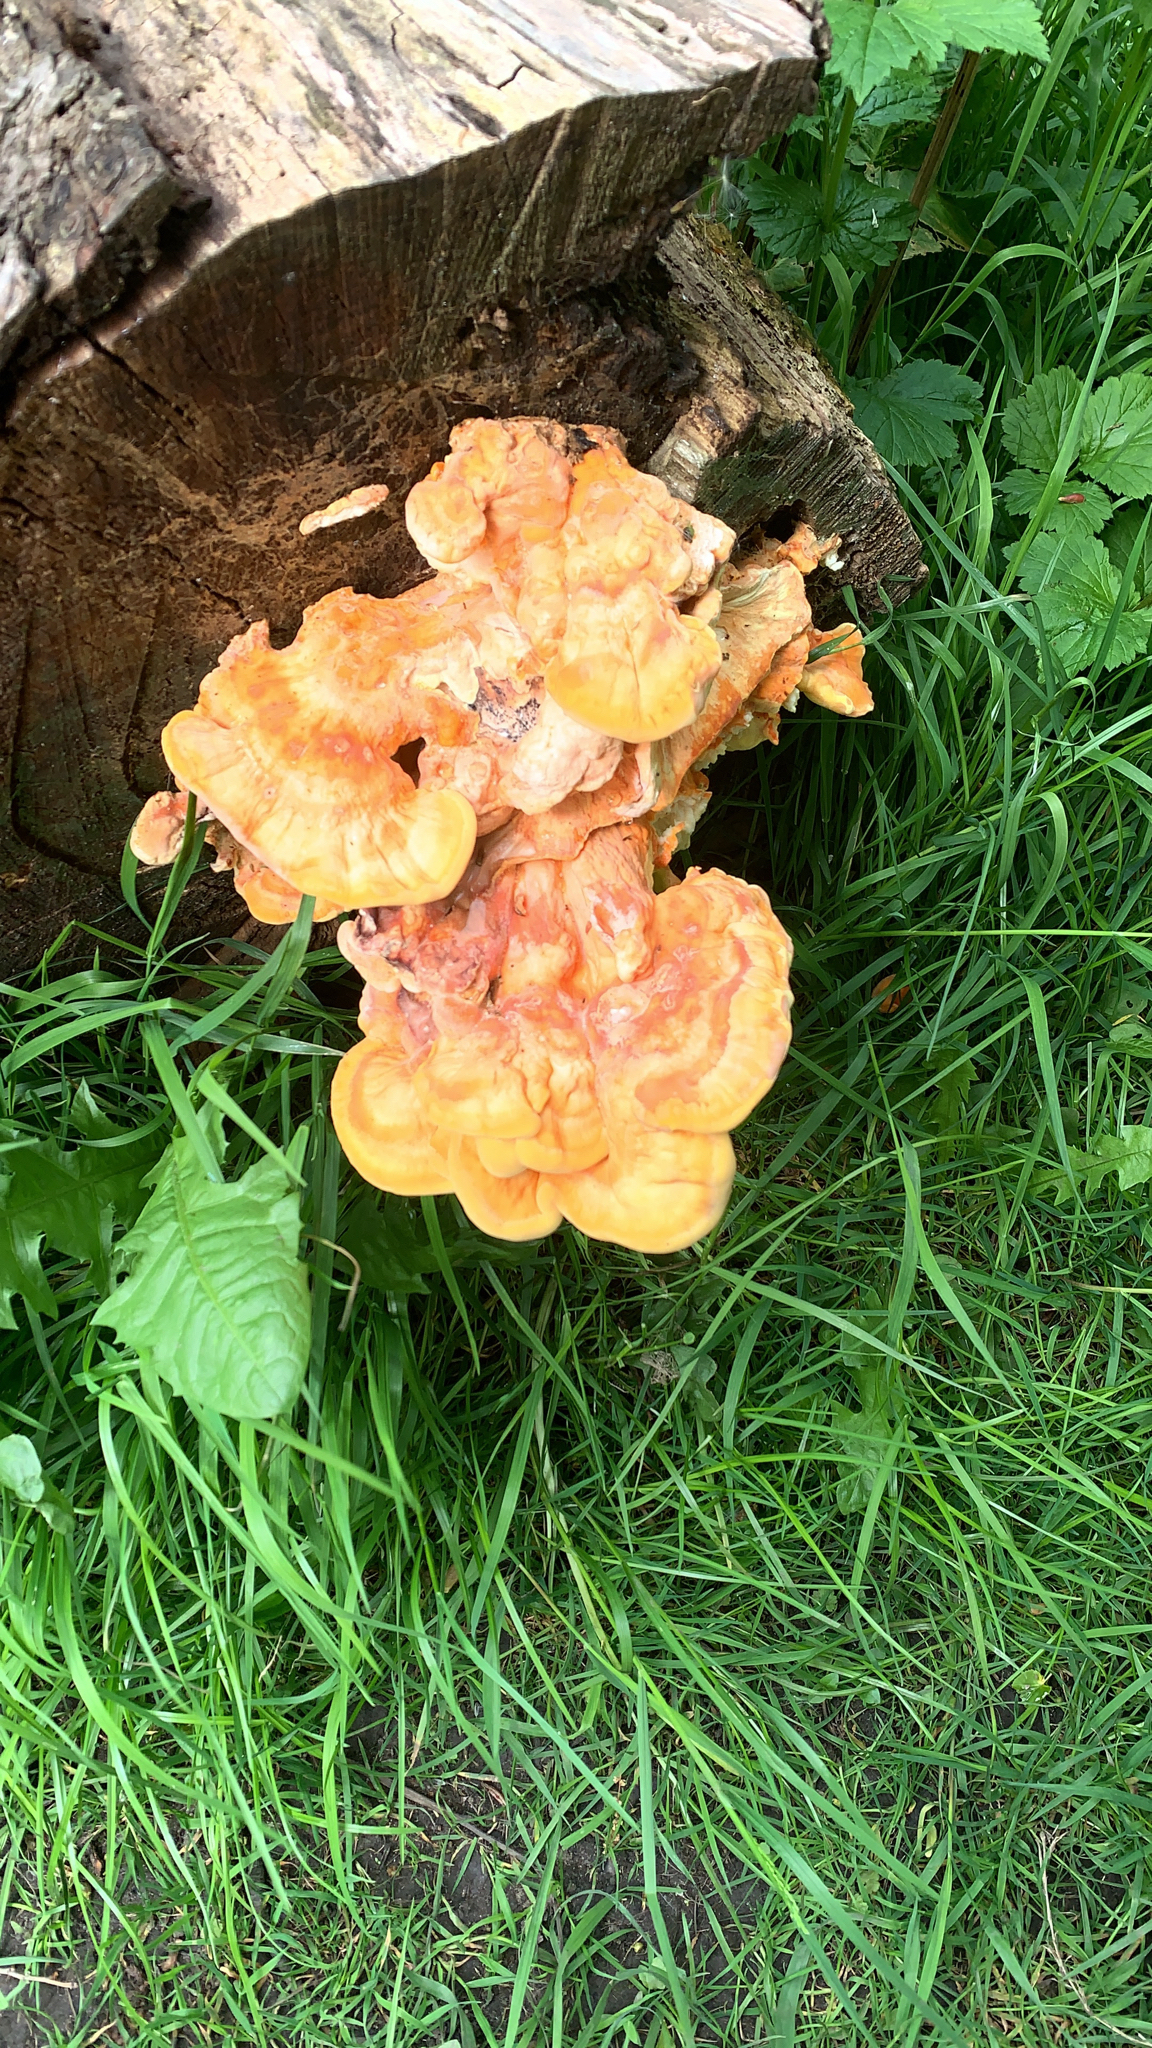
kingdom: Fungi
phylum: Basidiomycota
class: Agaricomycetes
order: Polyporales
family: Laetiporaceae
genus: Laetiporus
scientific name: Laetiporus sulphureus
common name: Chicken of the woods
